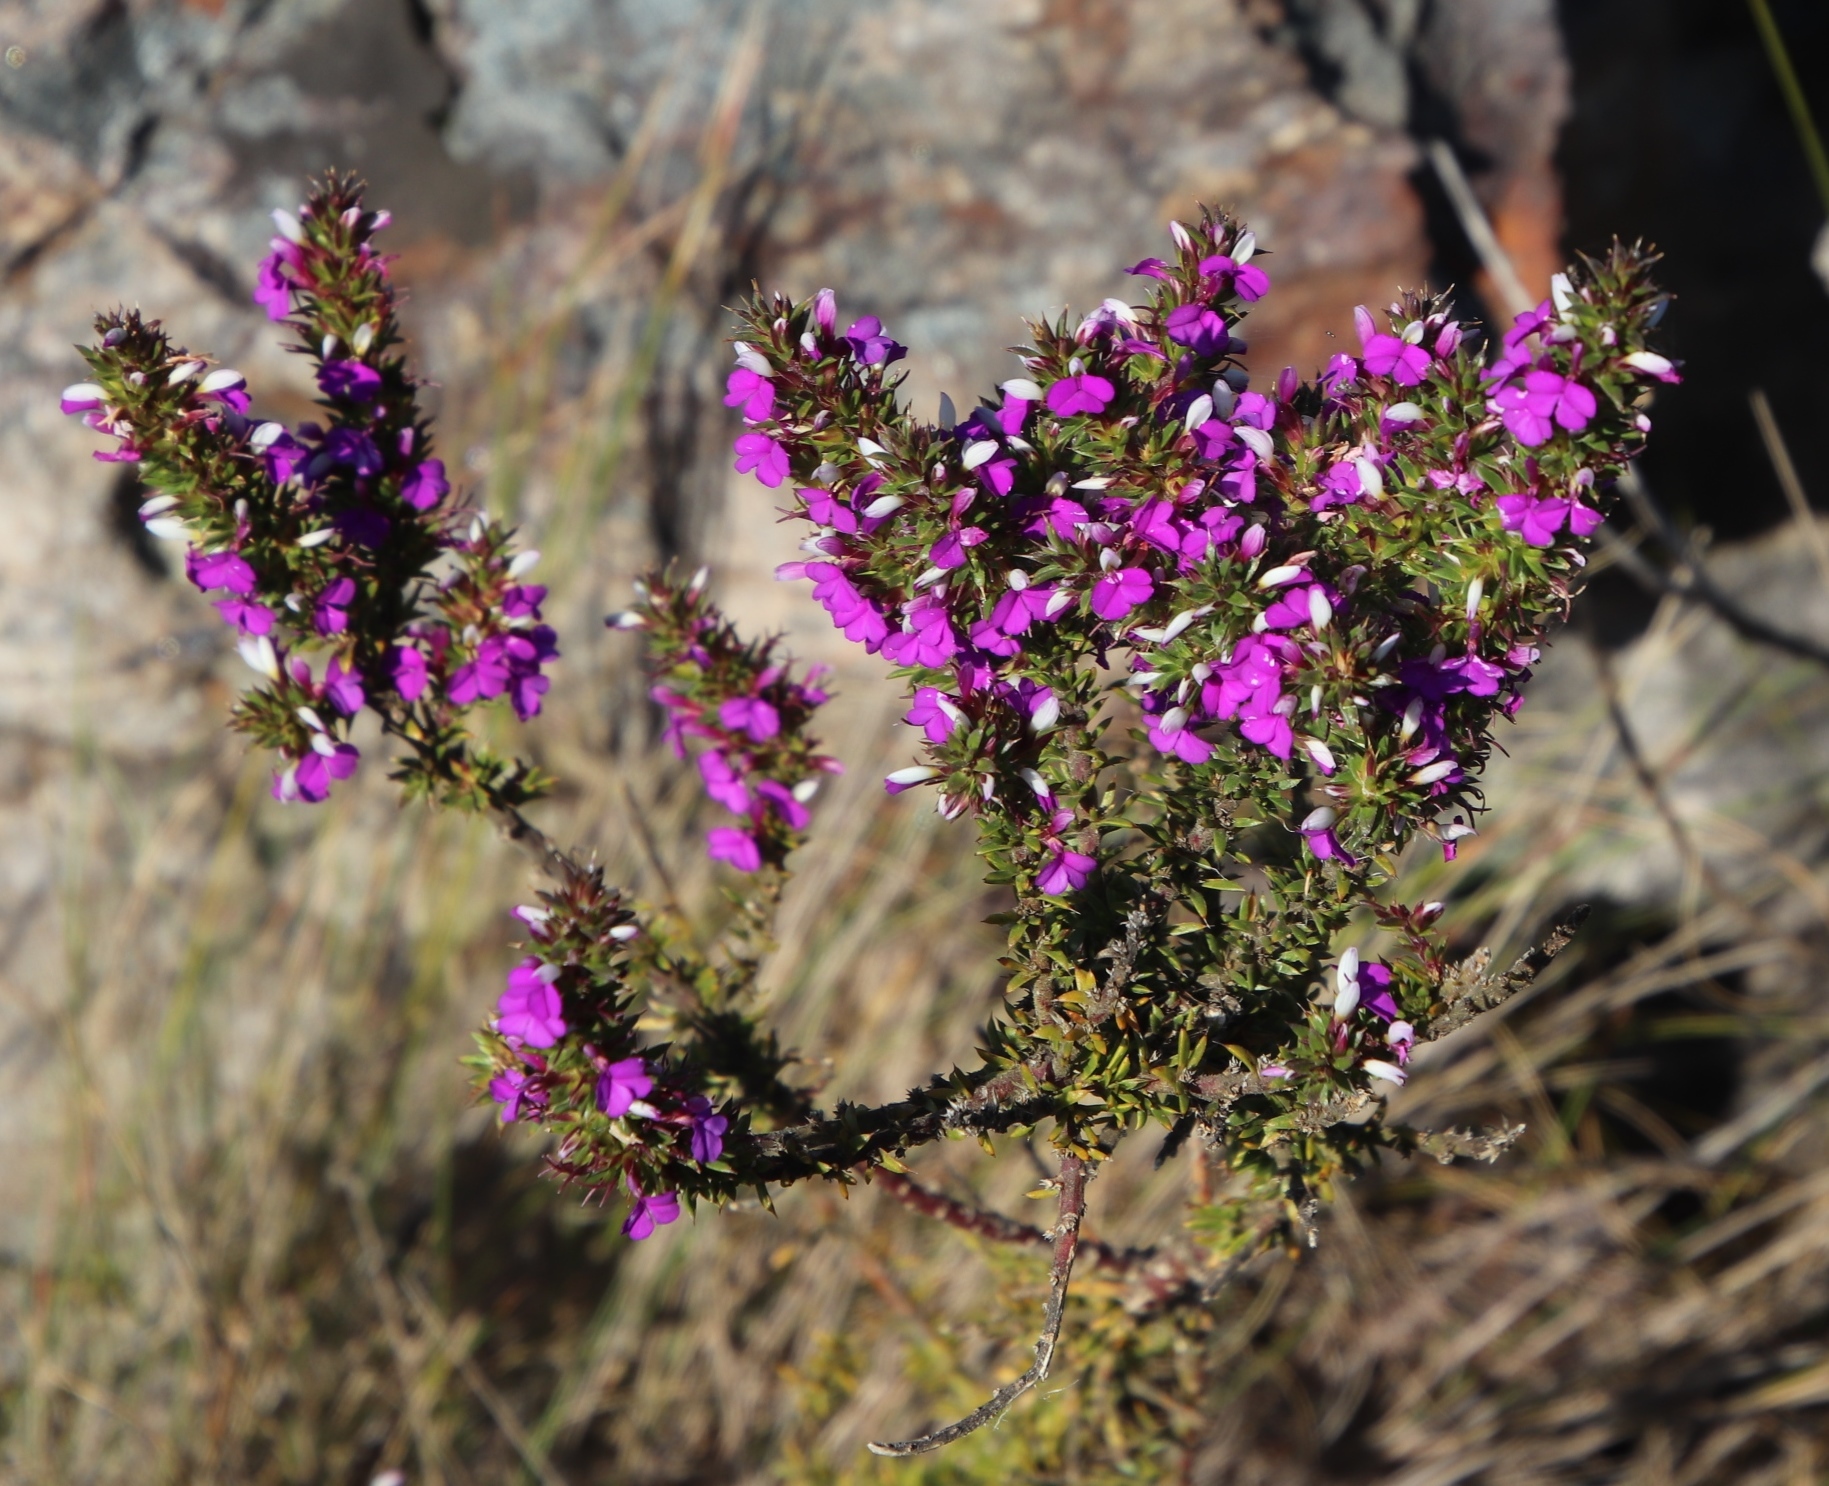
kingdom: Plantae
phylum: Tracheophyta
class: Magnoliopsida
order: Fabales
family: Polygalaceae
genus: Muraltia
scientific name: Muraltia heisteria
